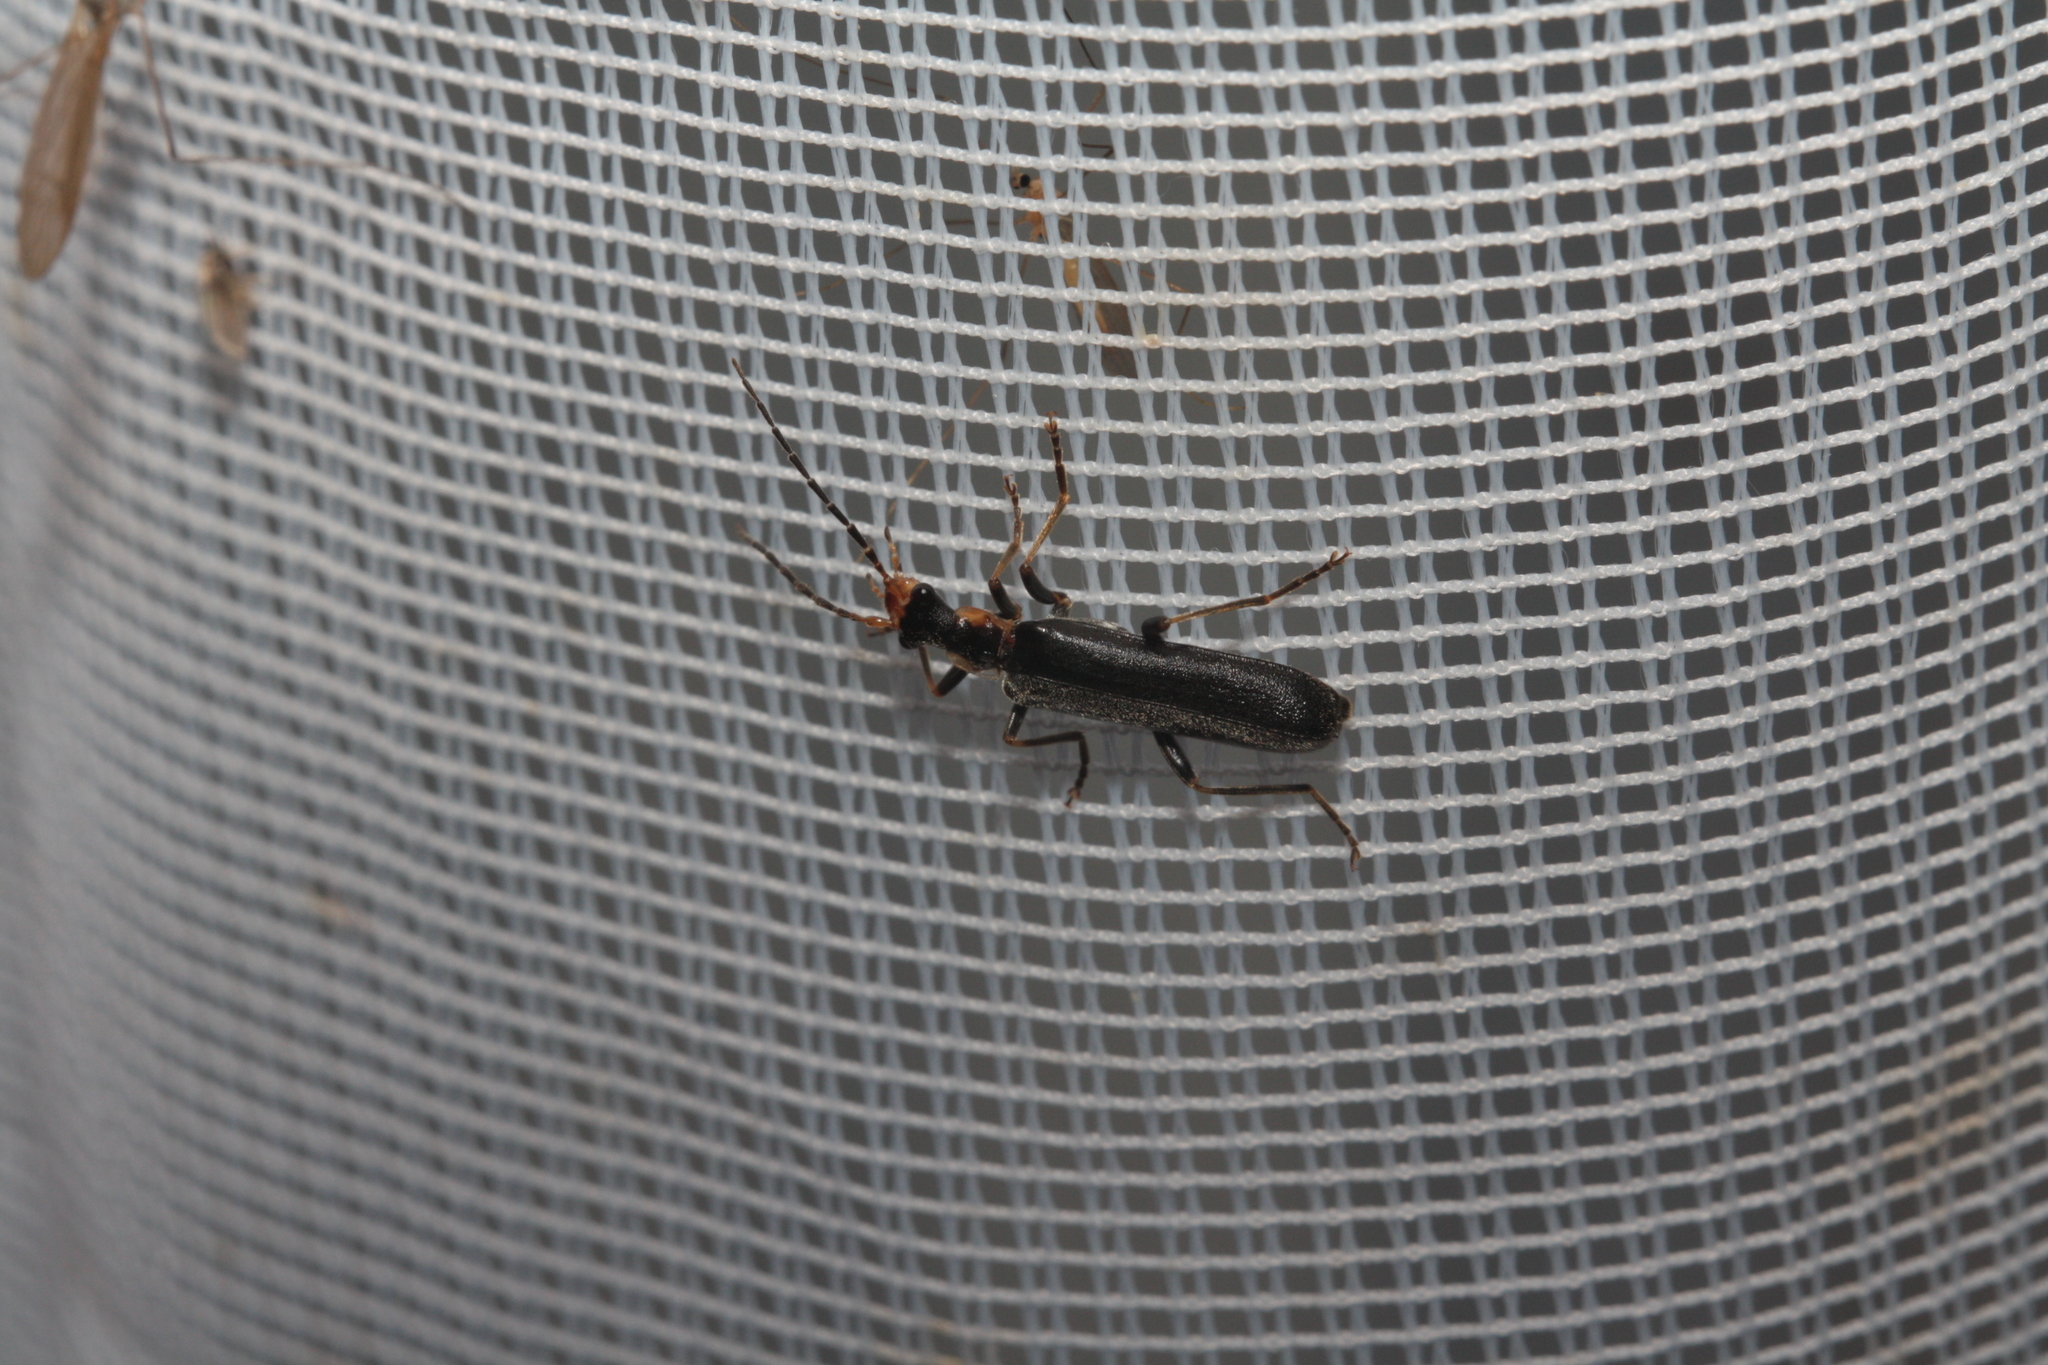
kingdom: Animalia
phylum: Arthropoda
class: Insecta
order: Coleoptera
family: Cantharidae
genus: Podabrus
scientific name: Podabrus alpinus
